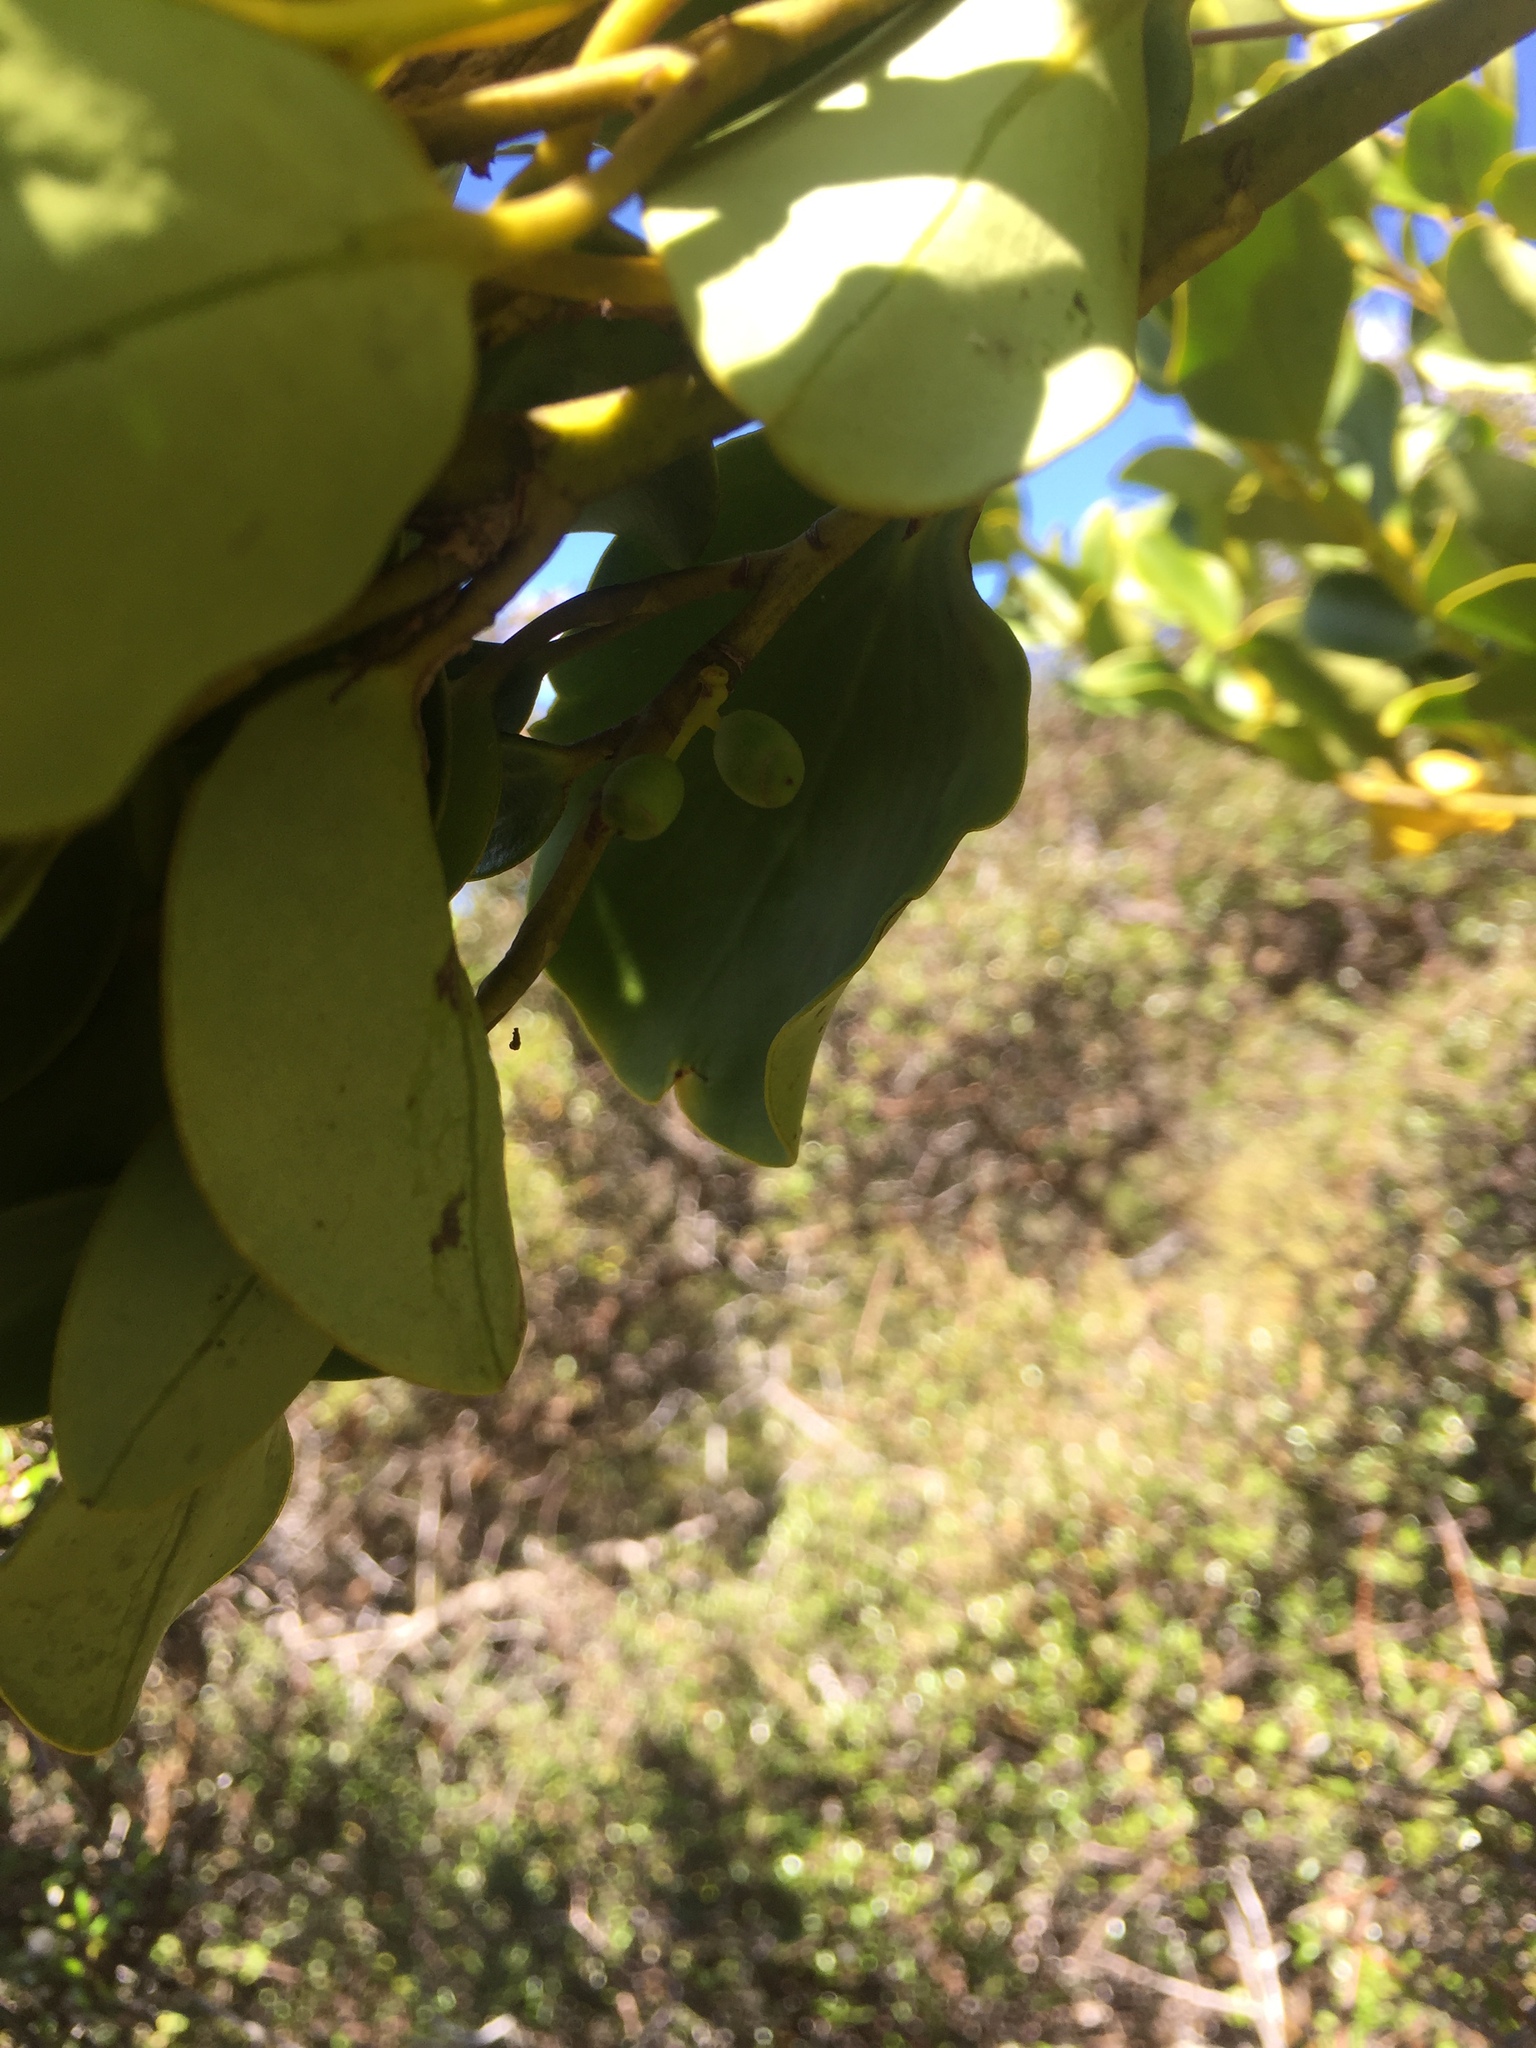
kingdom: Plantae
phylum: Tracheophyta
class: Magnoliopsida
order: Apiales
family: Griseliniaceae
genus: Griselinia
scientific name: Griselinia littoralis
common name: New zealand broadleaf
